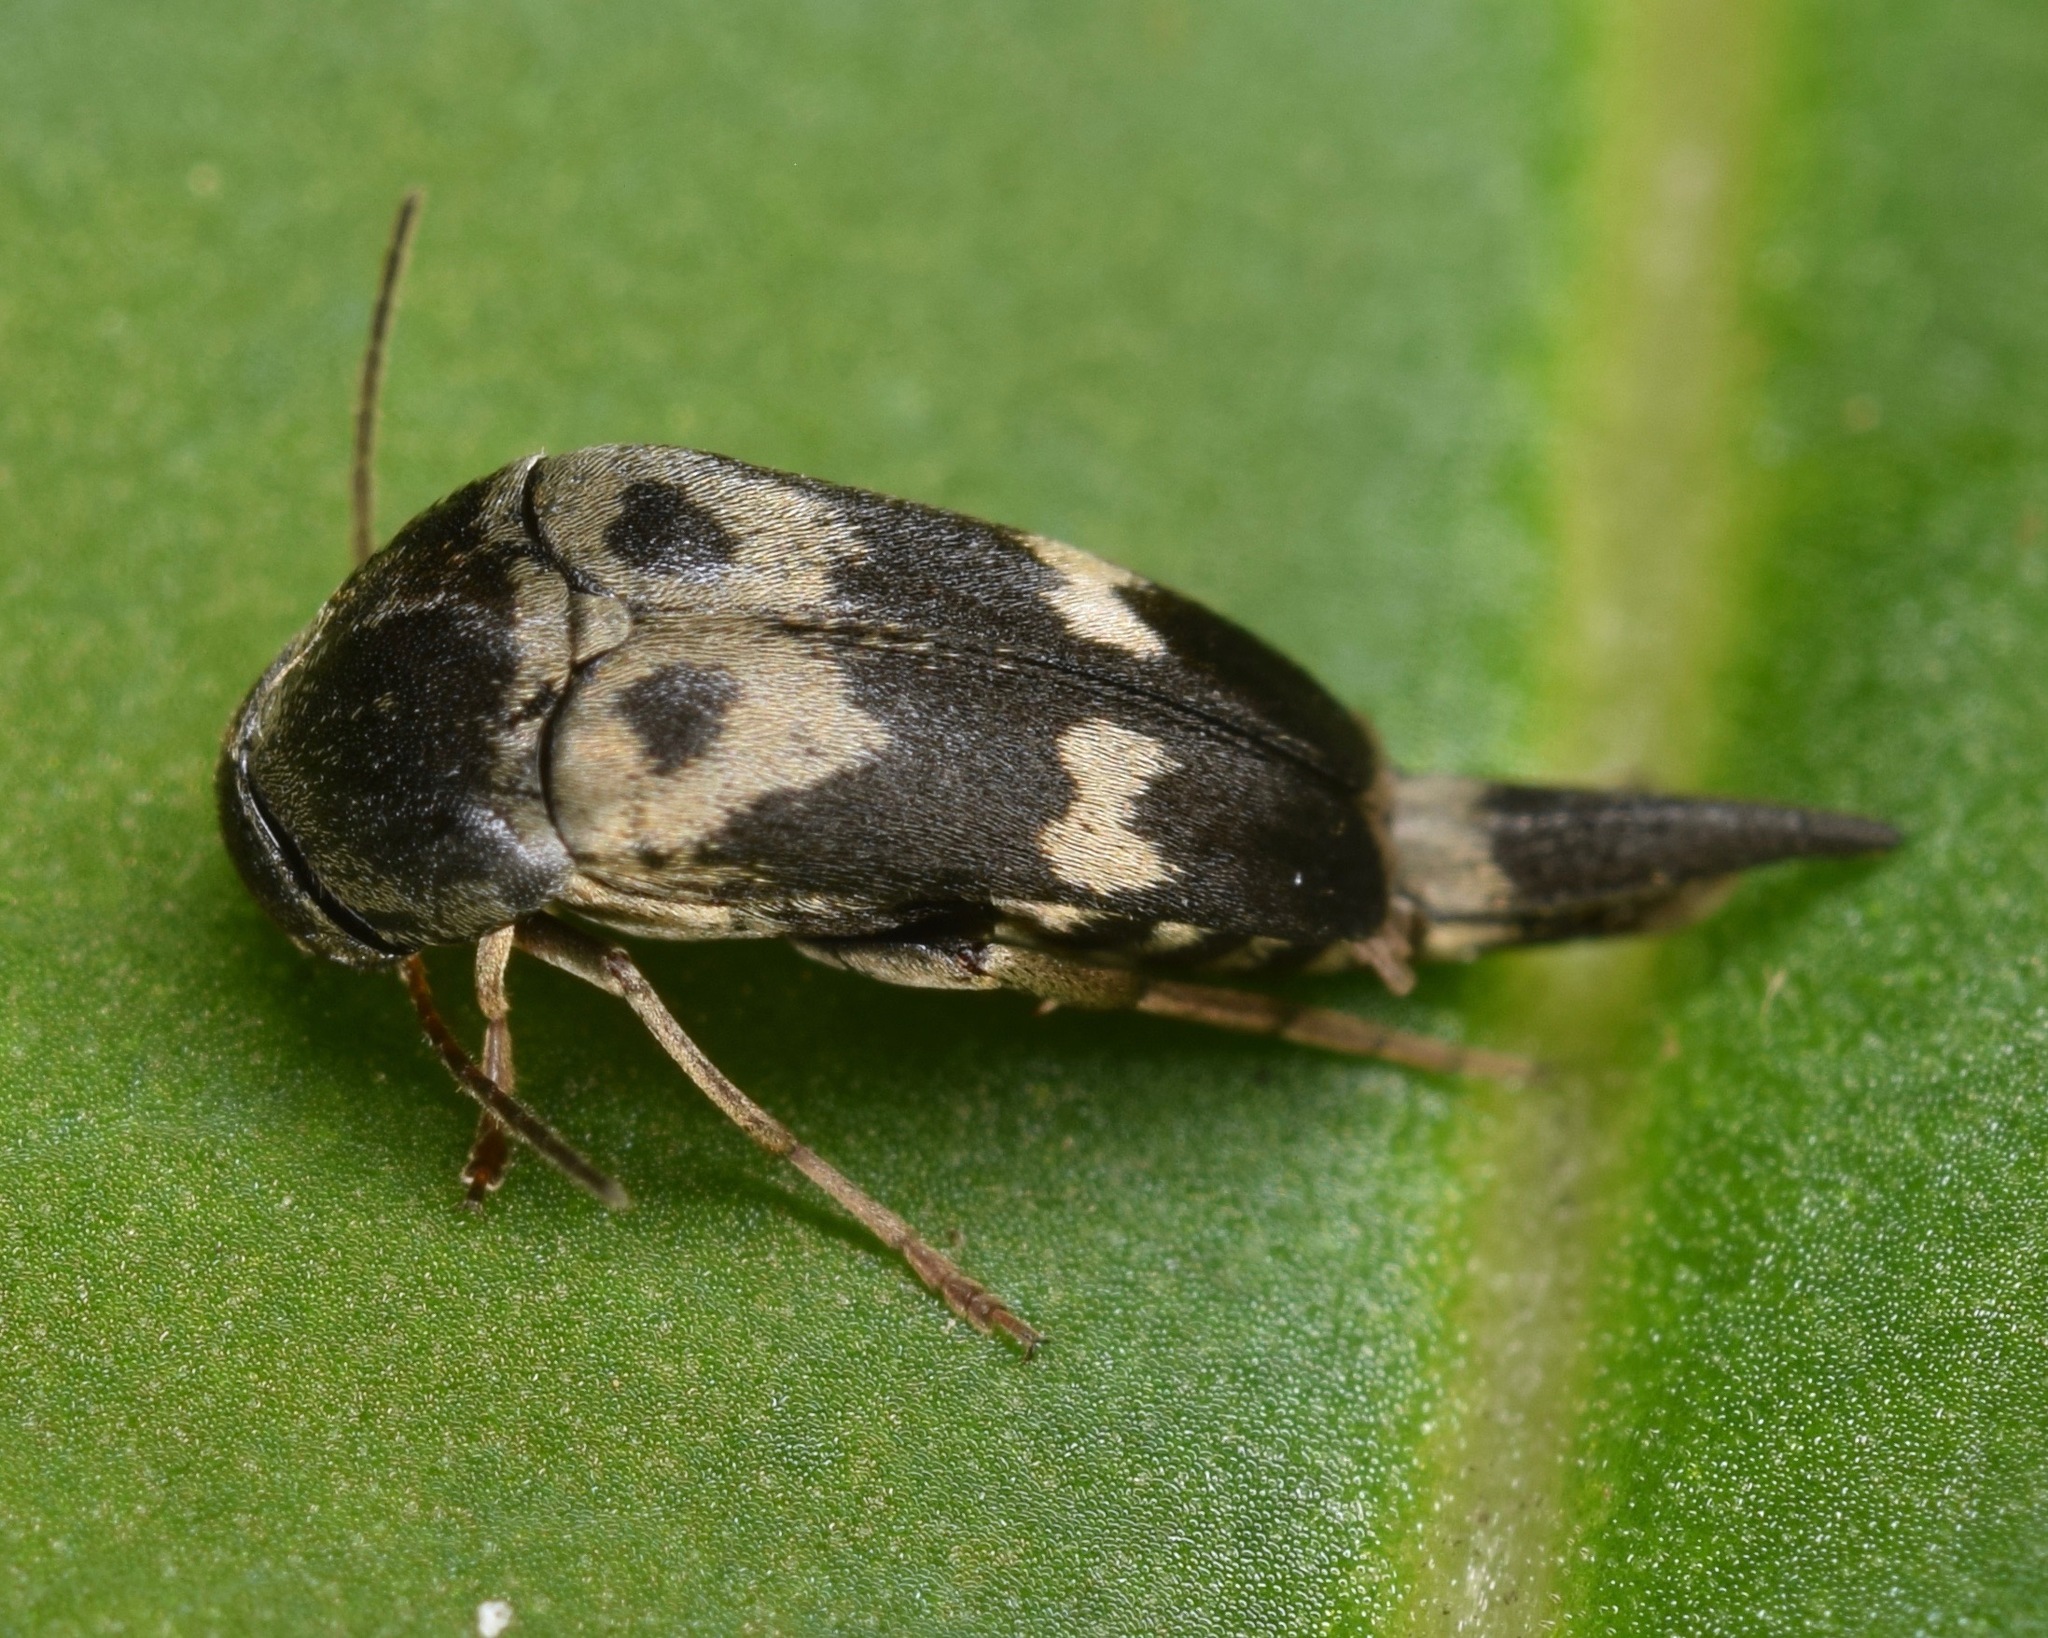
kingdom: Animalia
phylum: Arthropoda
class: Insecta
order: Coleoptera
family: Mordellidae
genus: Glipa
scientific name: Glipa oculata
